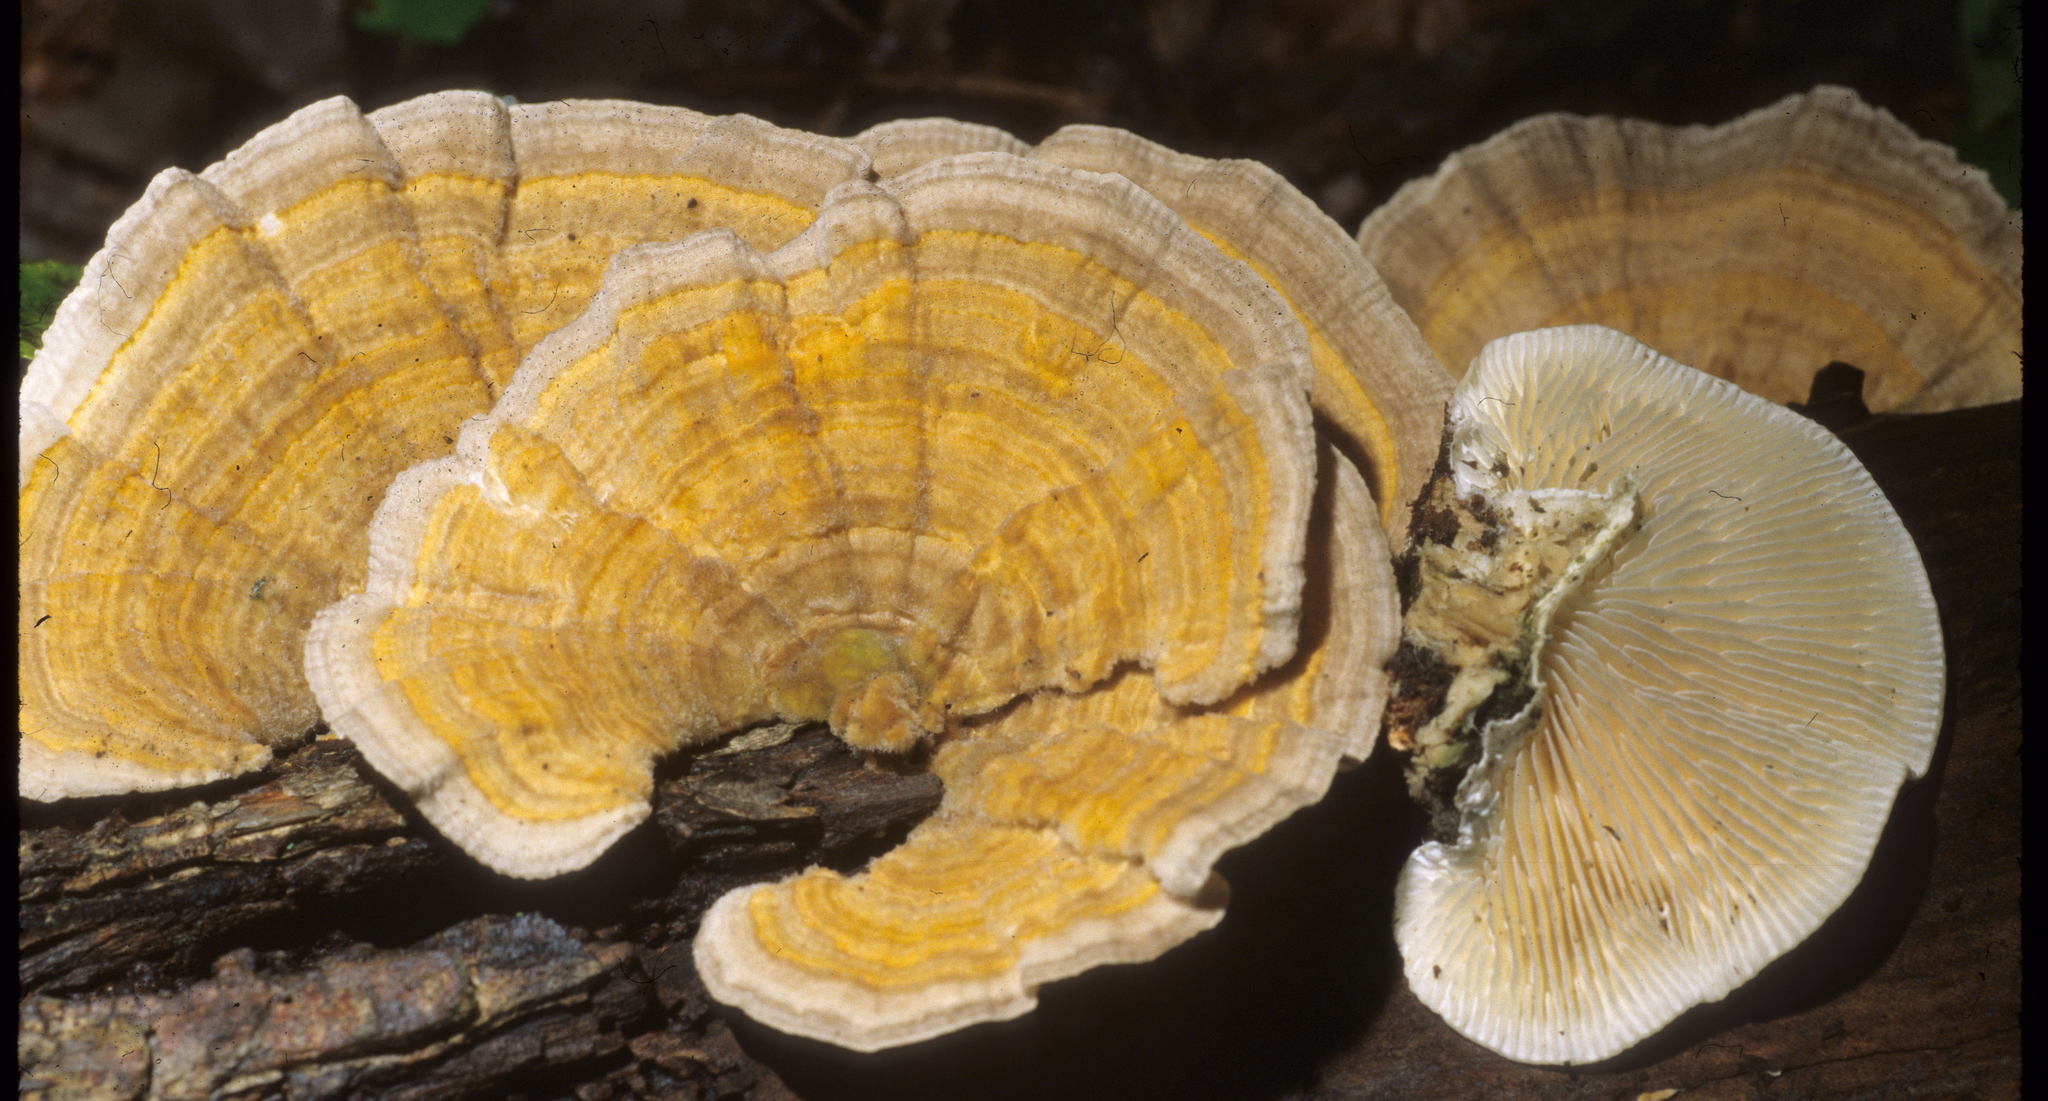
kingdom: Fungi
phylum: Basidiomycota
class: Agaricomycetes
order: Polyporales
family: Polyporaceae
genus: Lenzites
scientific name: Lenzites betulinus
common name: Birch mazegill
